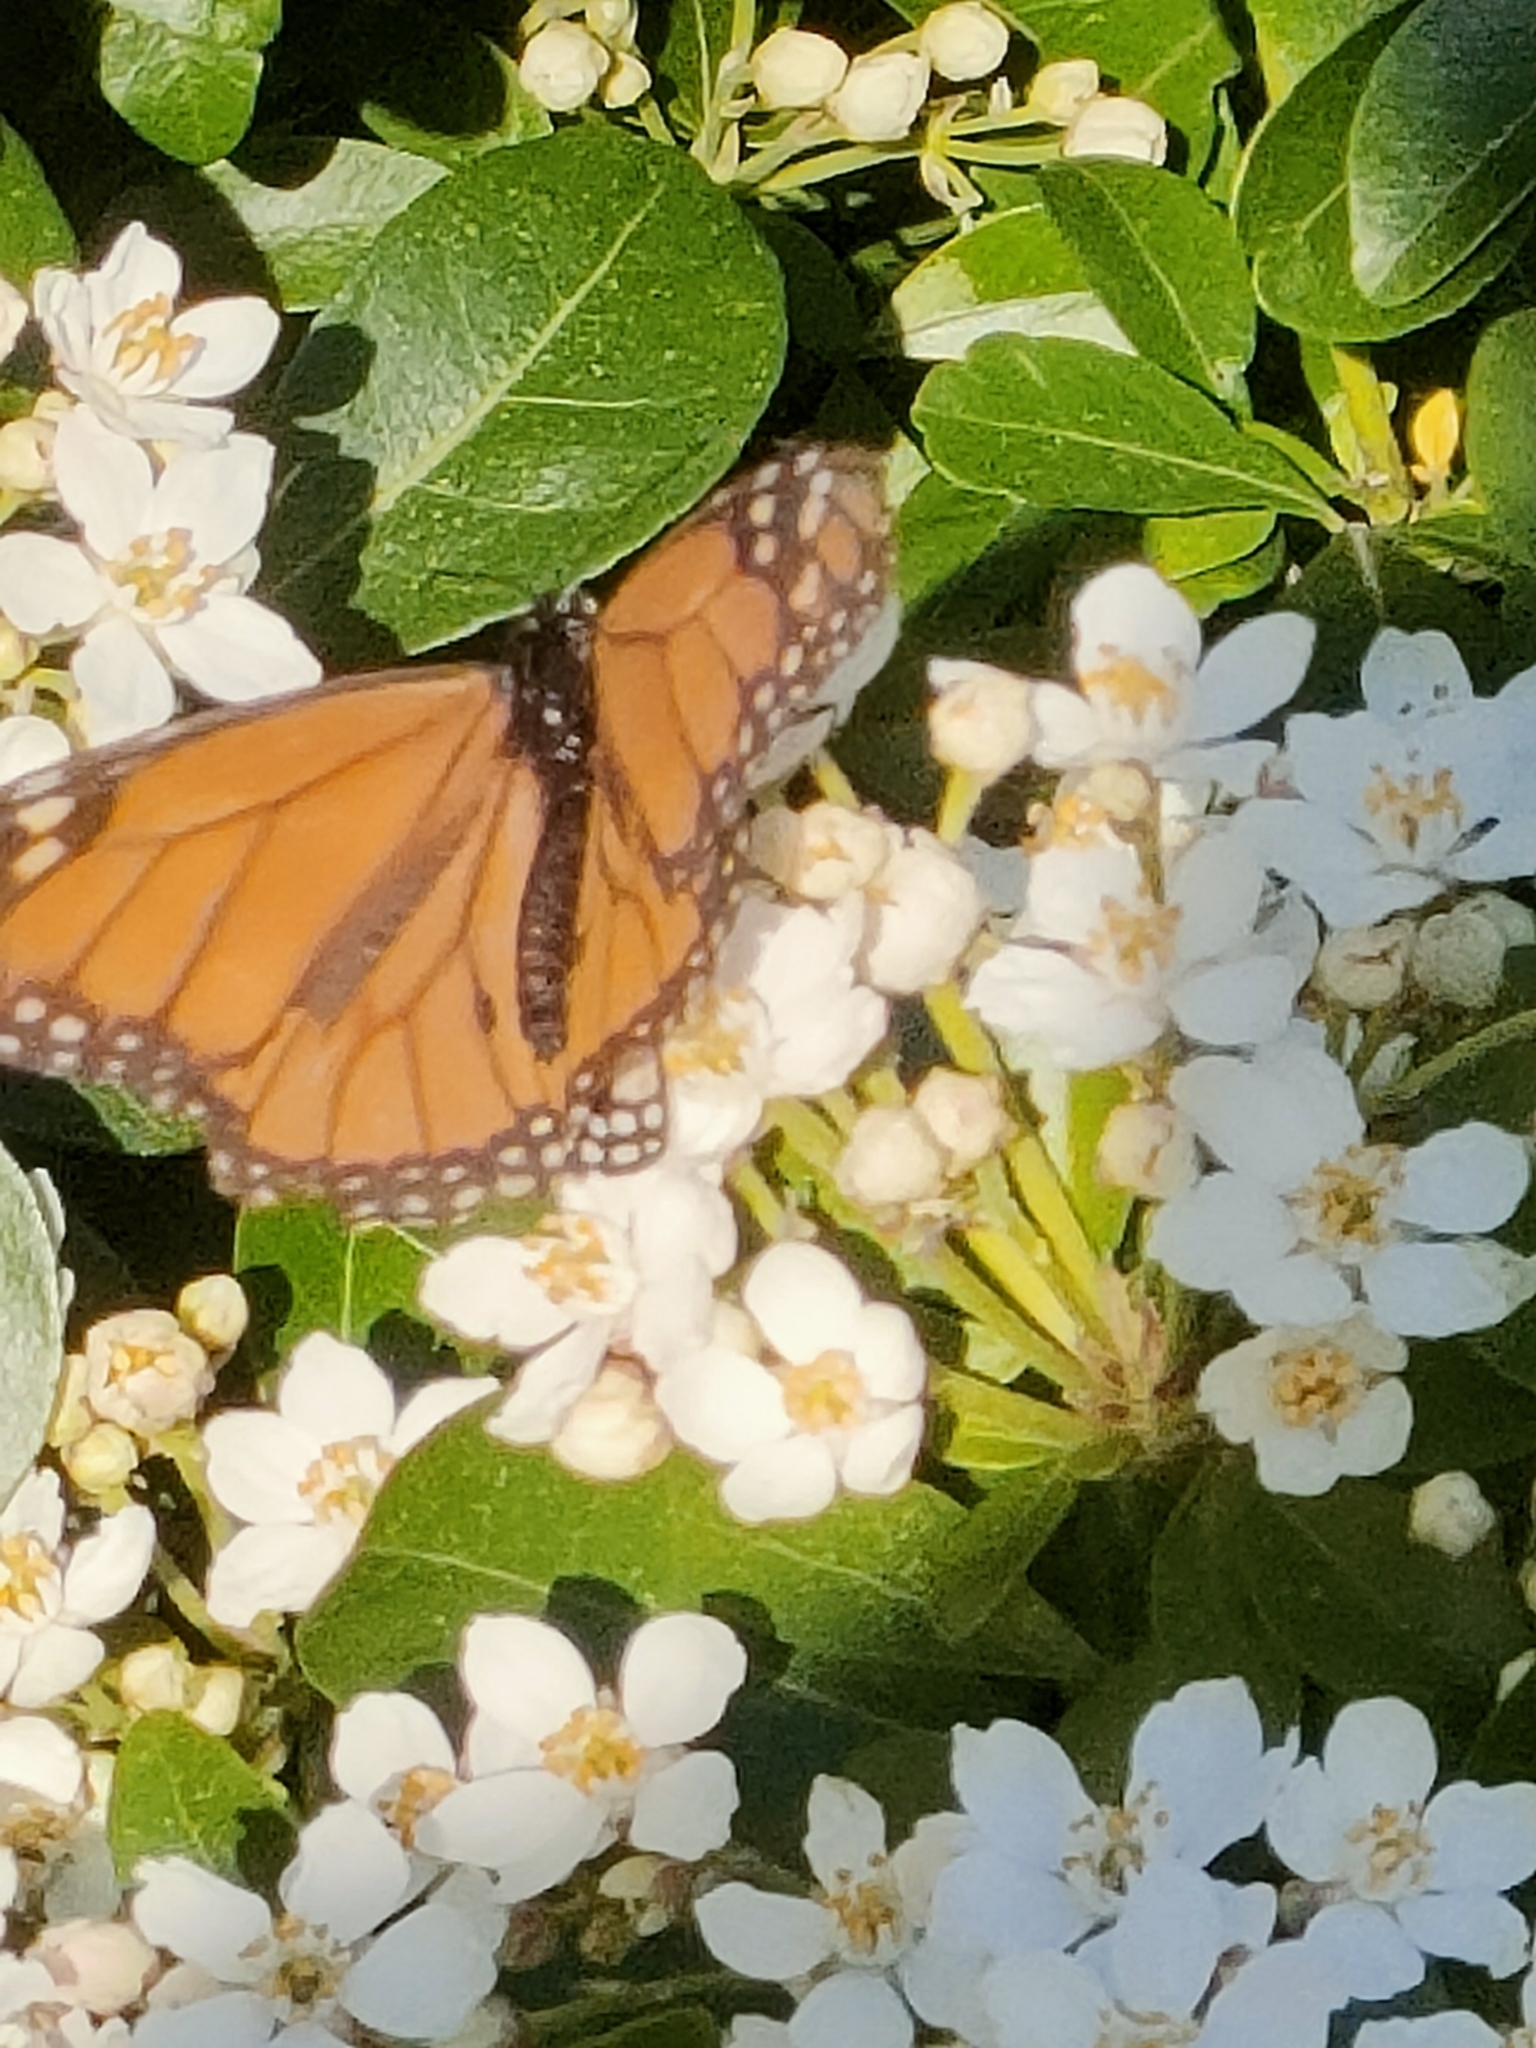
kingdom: Animalia
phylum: Arthropoda
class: Insecta
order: Lepidoptera
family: Nymphalidae
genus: Danaus
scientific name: Danaus plexippus
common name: Monarch
